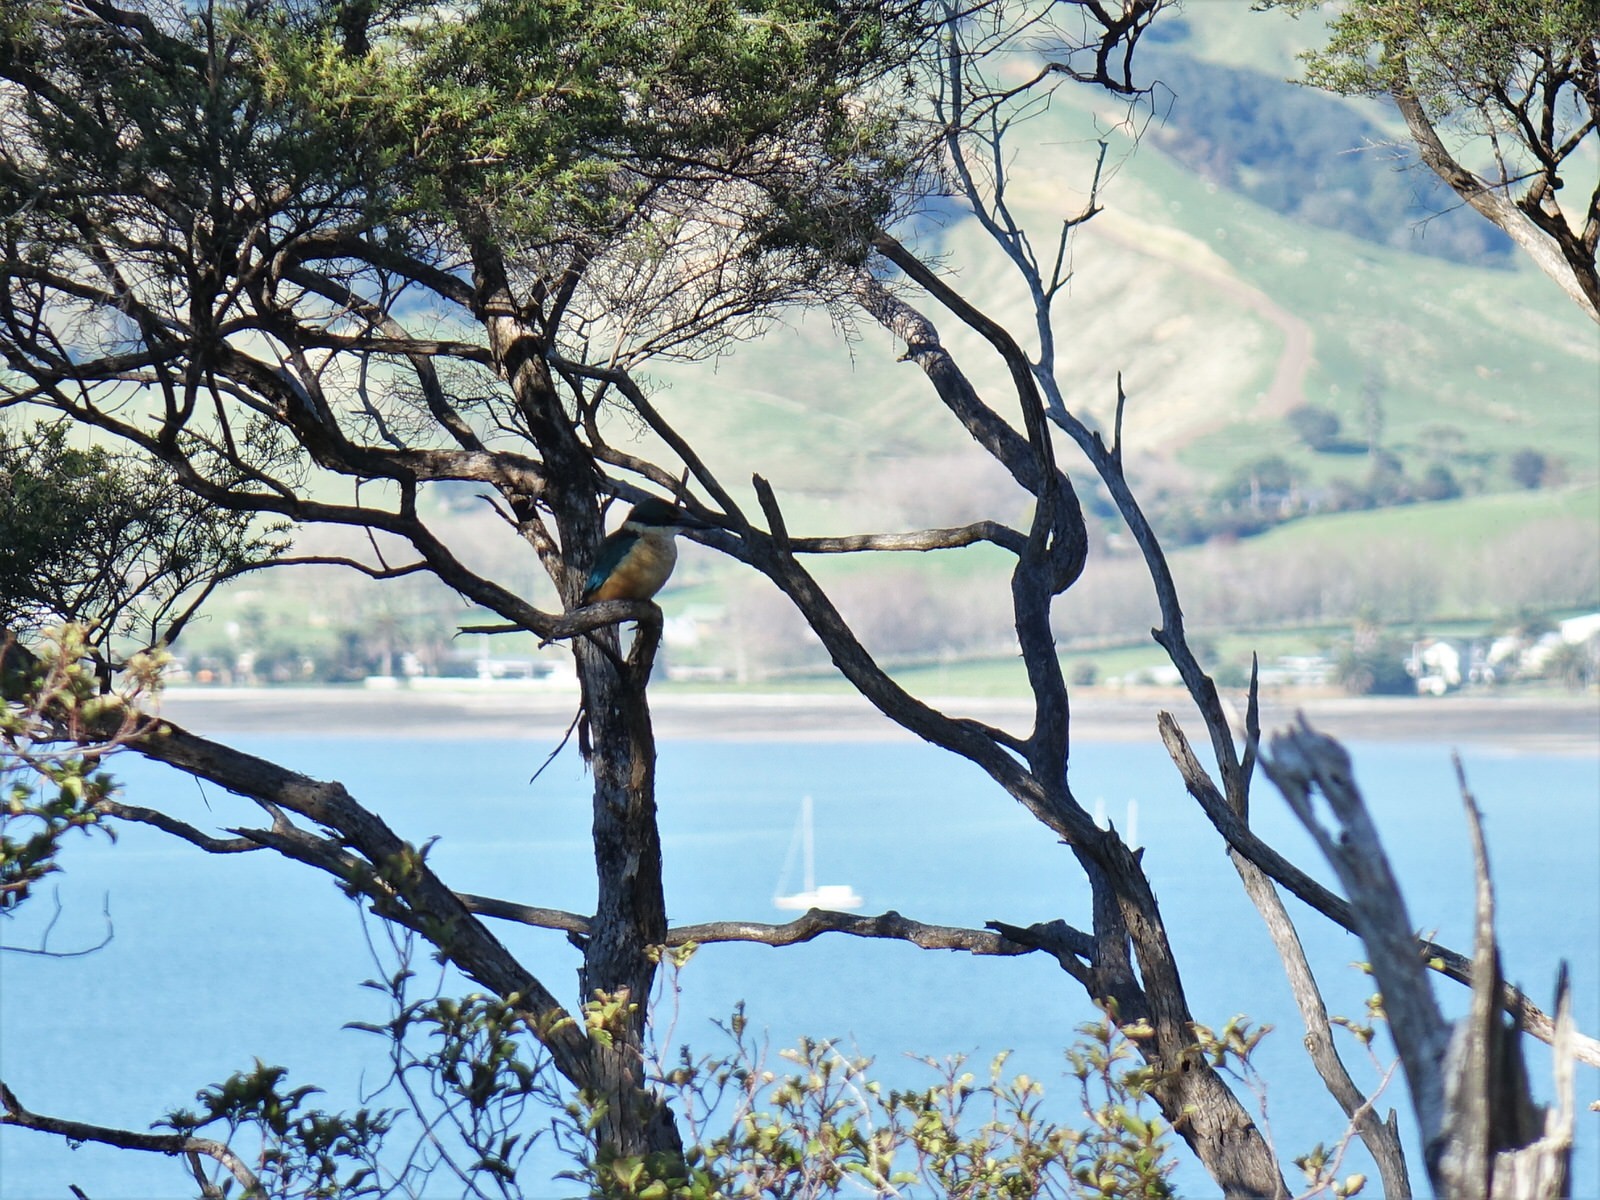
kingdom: Animalia
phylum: Chordata
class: Aves
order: Coraciiformes
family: Alcedinidae
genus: Todiramphus
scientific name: Todiramphus sanctus
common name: Sacred kingfisher
